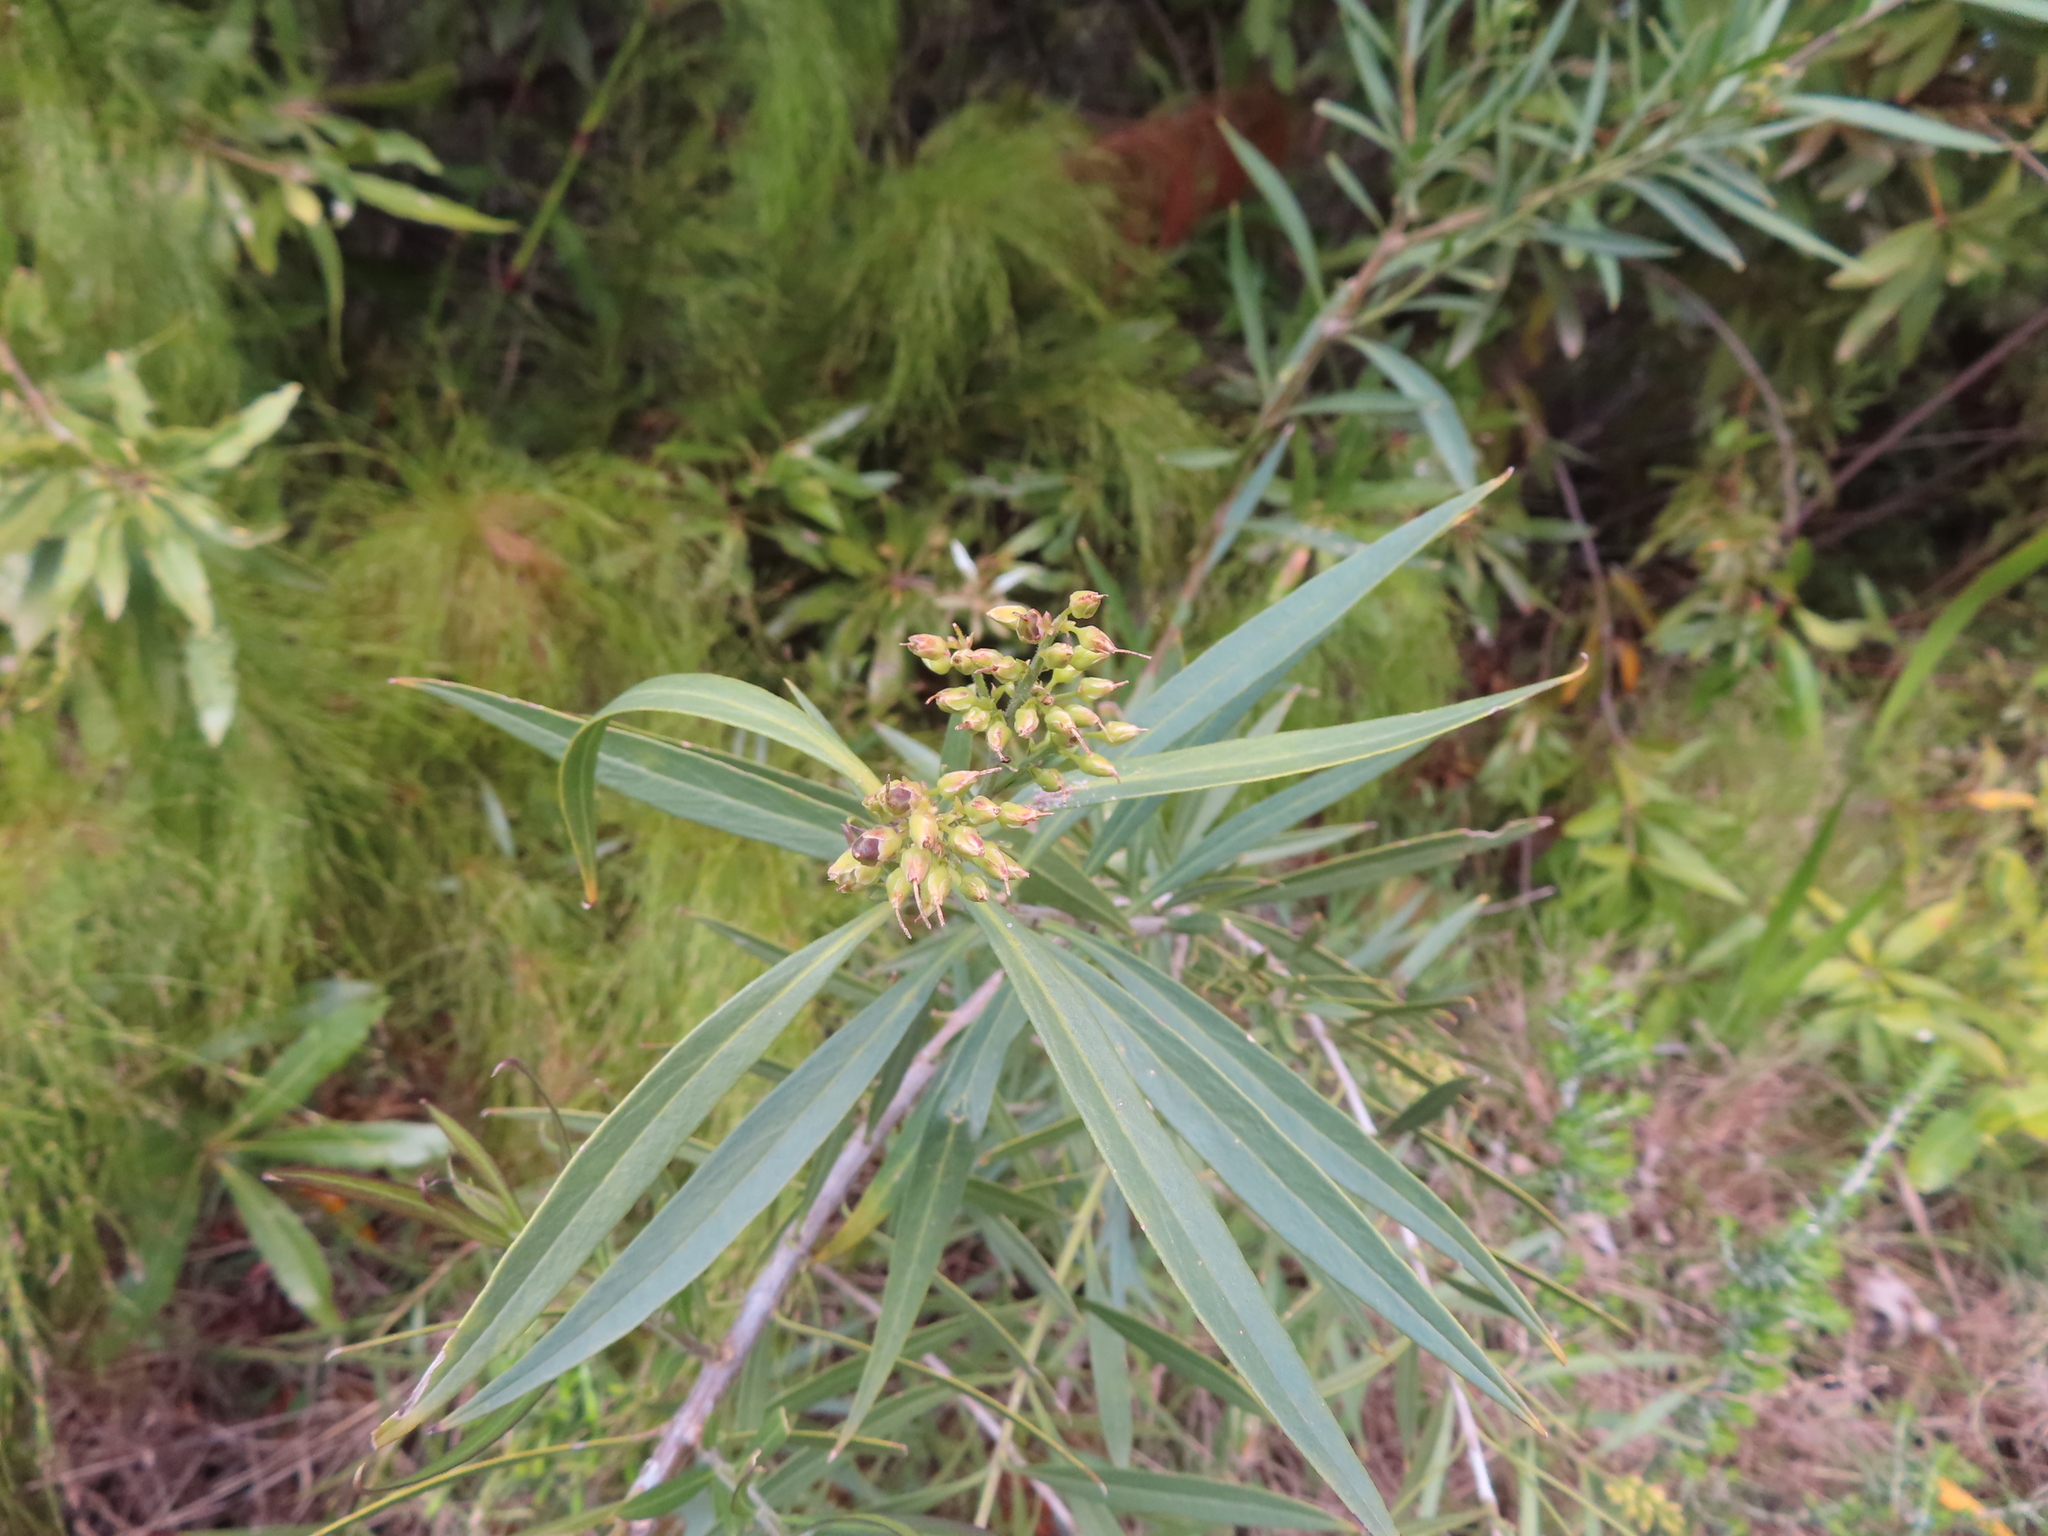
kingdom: Plantae
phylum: Tracheophyta
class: Magnoliopsida
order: Lamiales
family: Scrophulariaceae
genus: Freylinia
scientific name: Freylinia lanceolata
